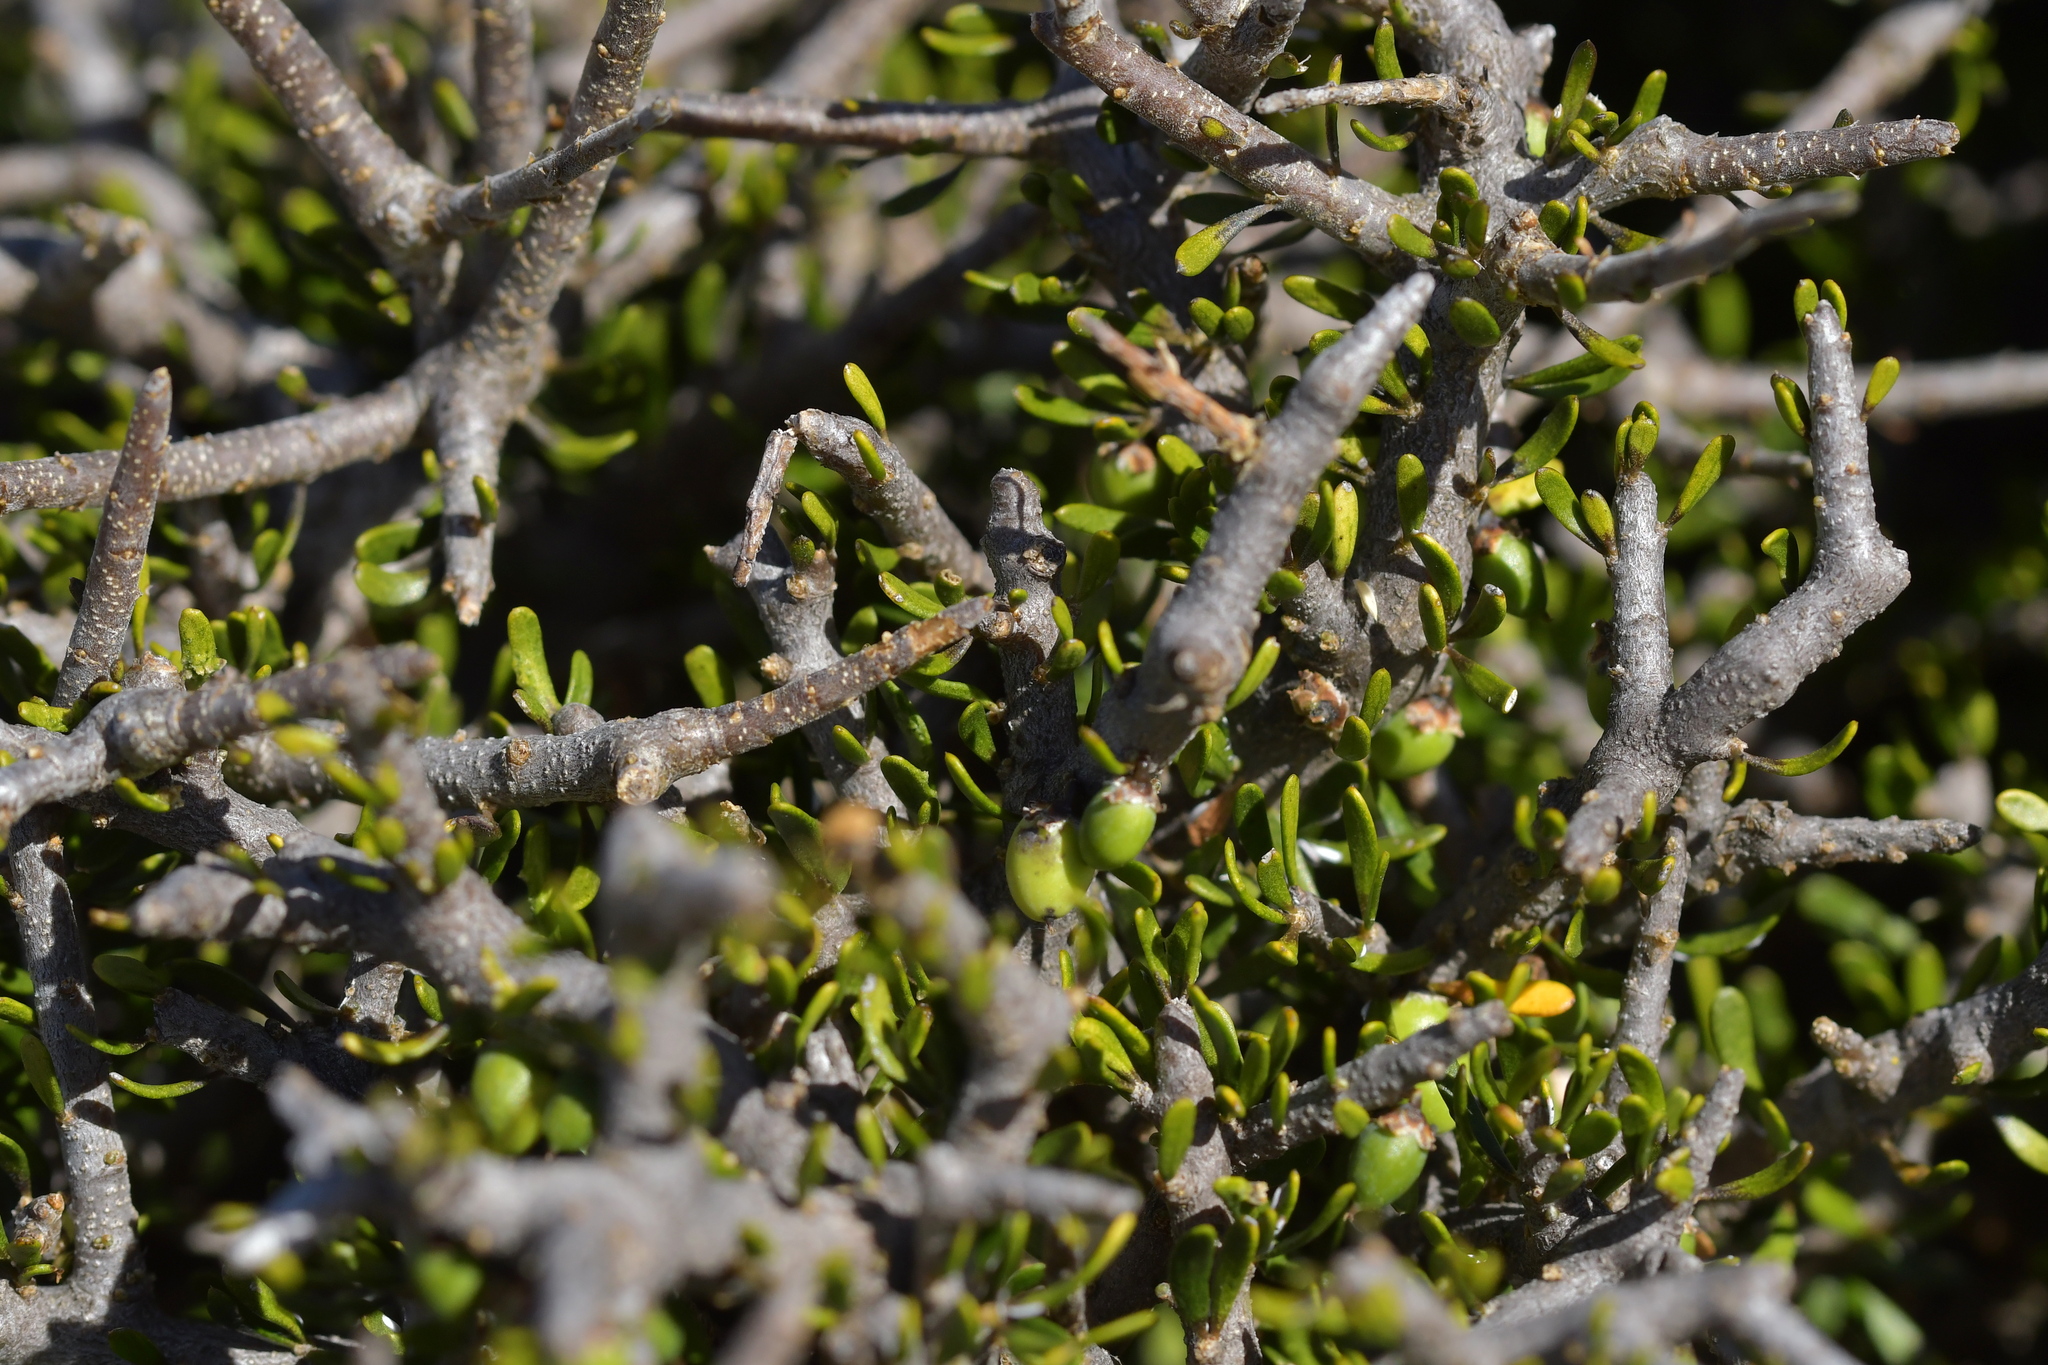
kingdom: Plantae
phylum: Tracheophyta
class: Magnoliopsida
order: Malpighiales
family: Violaceae
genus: Melicytus
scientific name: Melicytus alpinus
